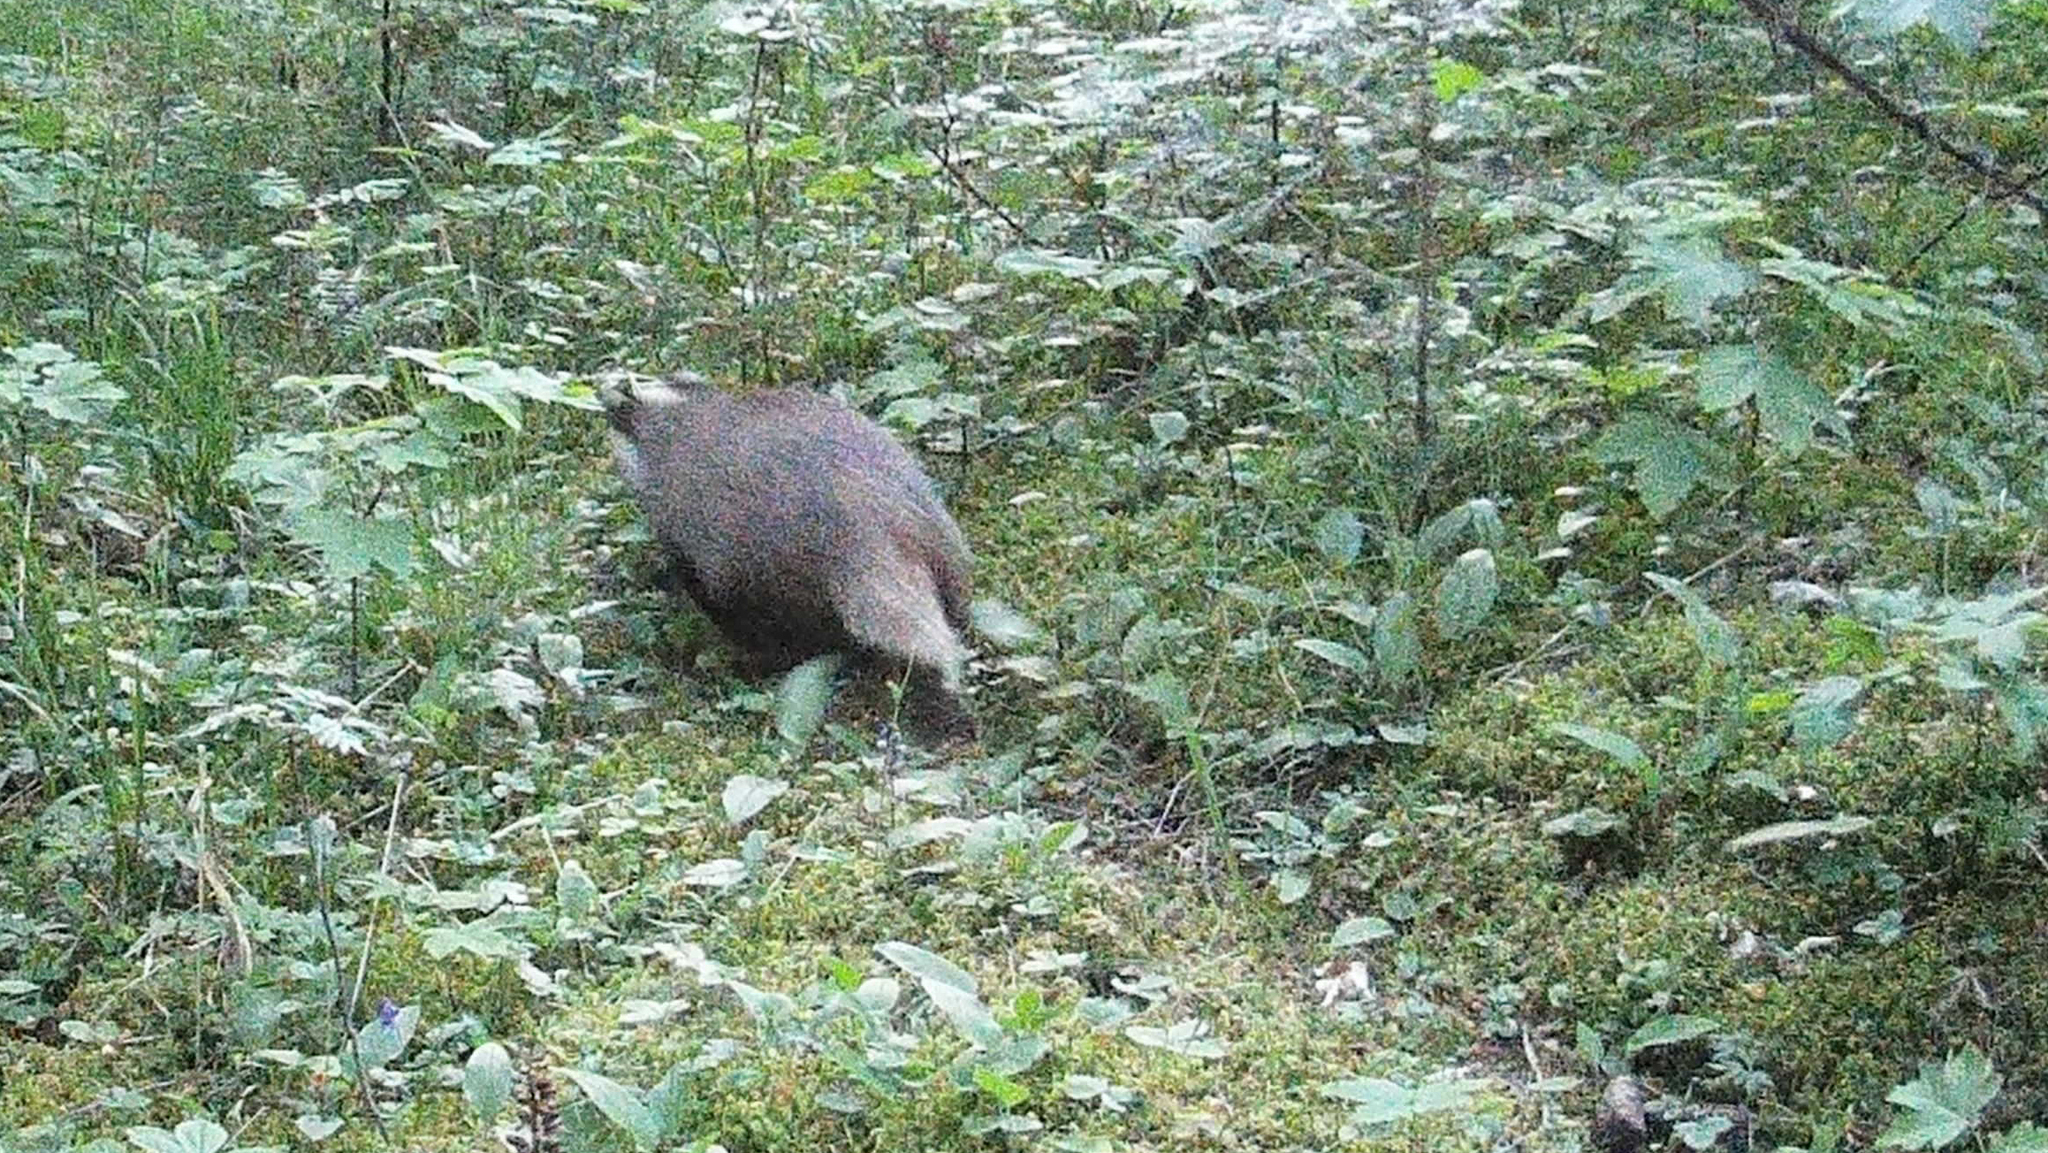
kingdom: Animalia
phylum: Chordata
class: Mammalia
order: Carnivora
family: Mustelidae
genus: Meles
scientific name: Meles meles
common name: Eurasian badger
